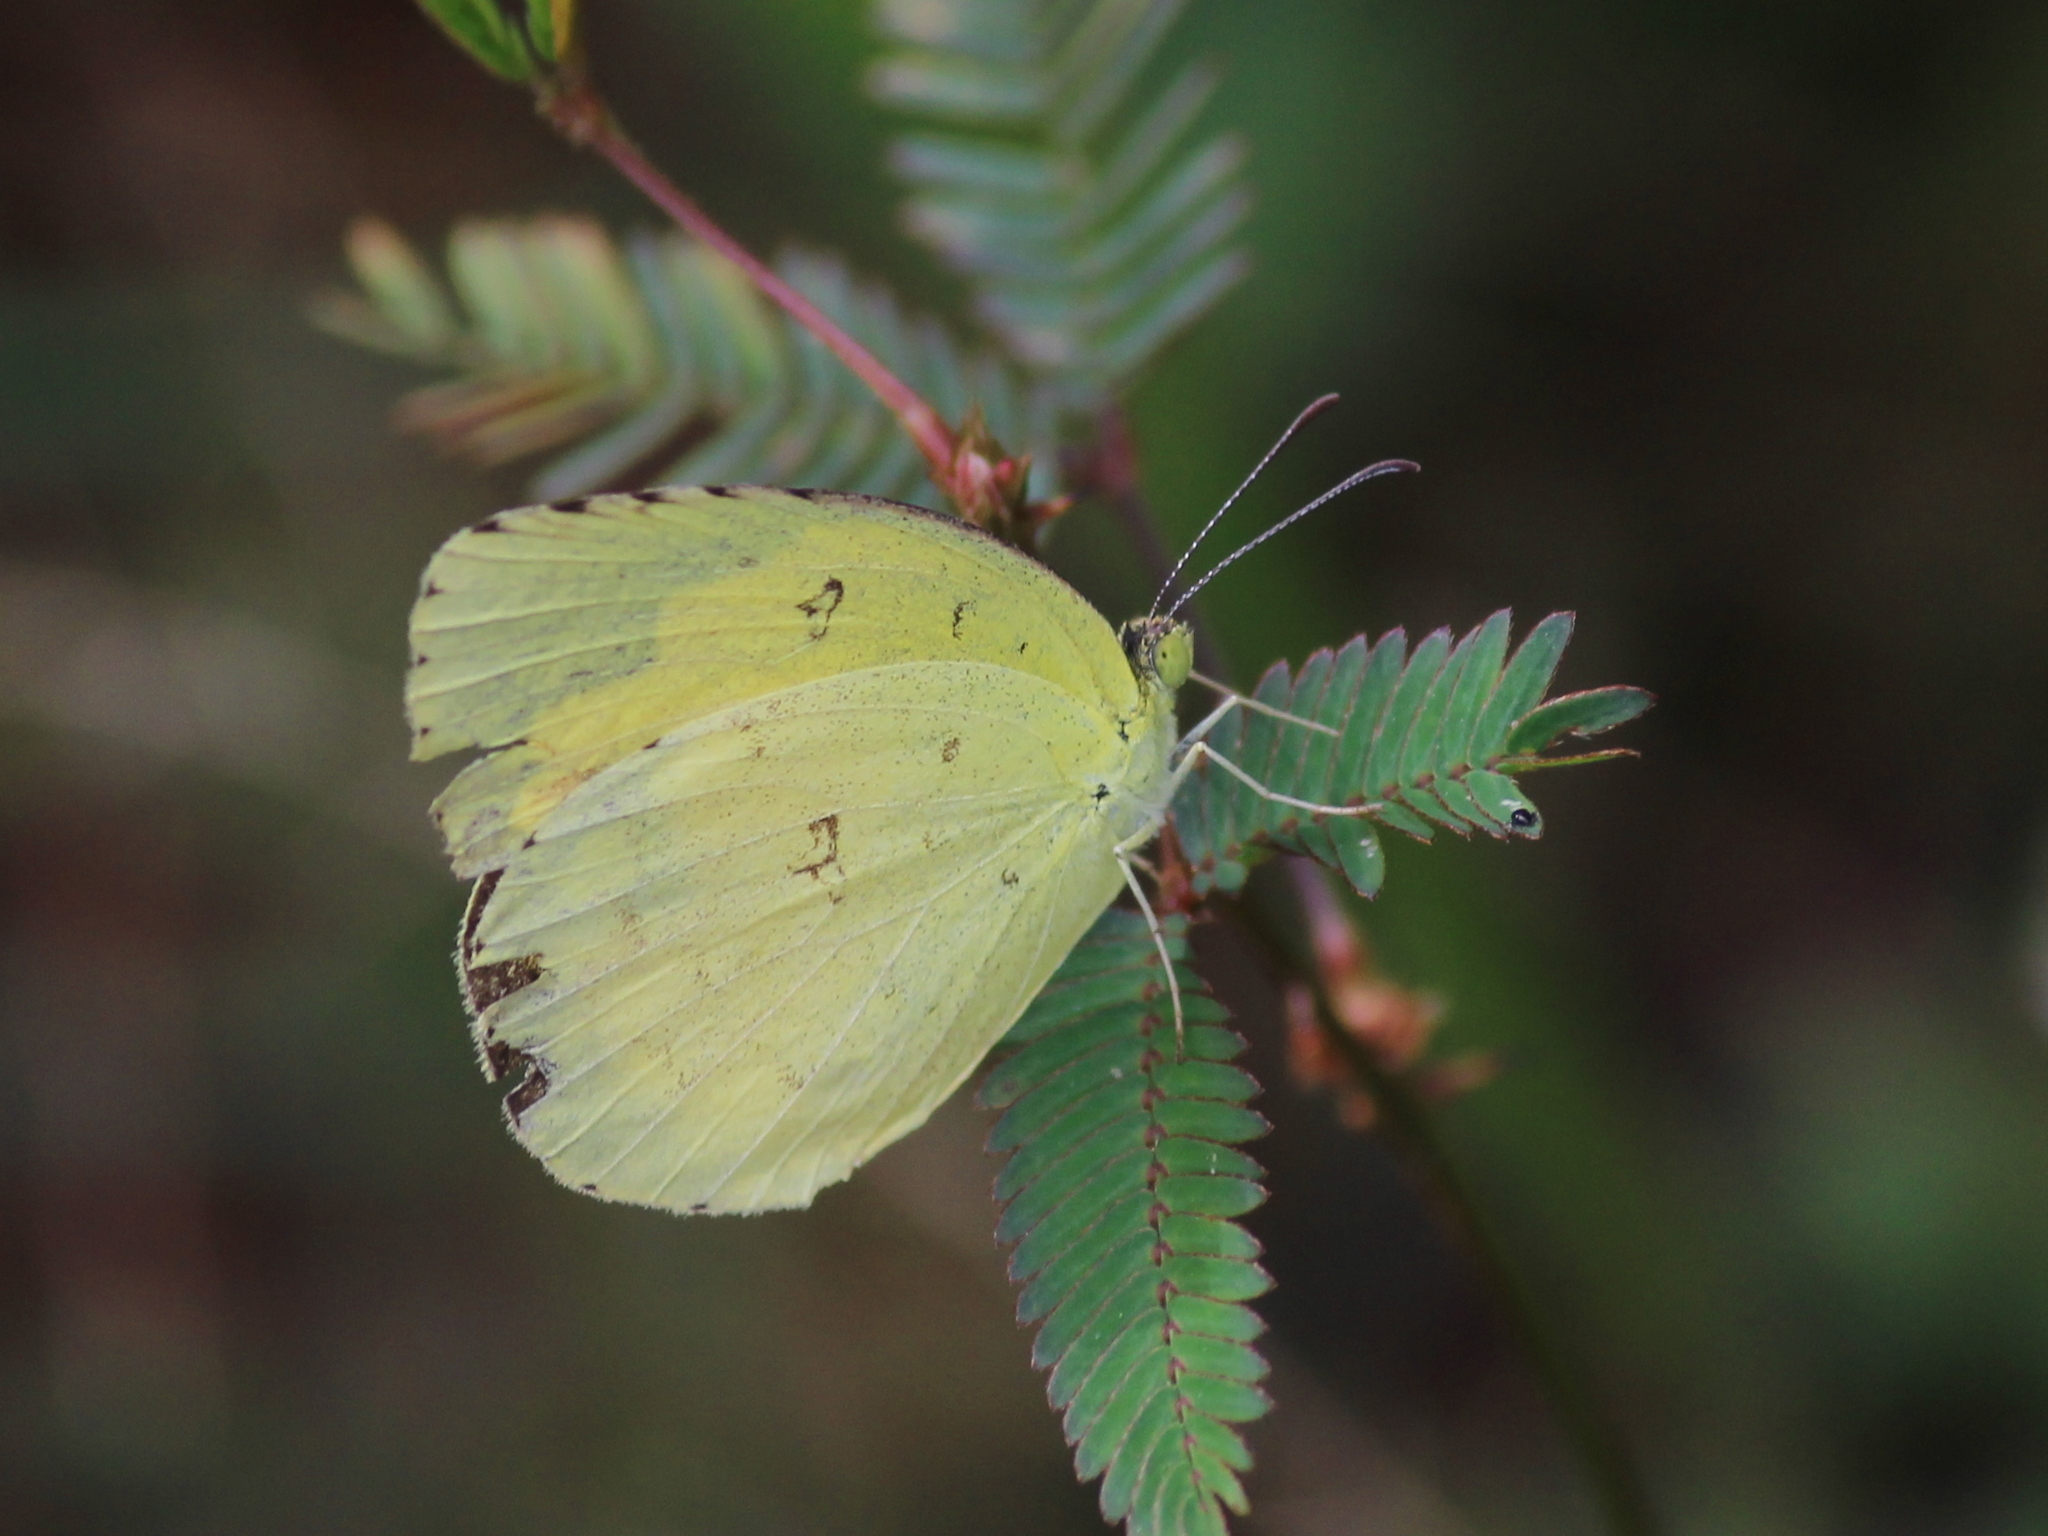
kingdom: Animalia
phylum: Arthropoda
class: Insecta
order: Lepidoptera
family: Pieridae
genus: Eurema
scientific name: Eurema hecabe
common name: Pale grass yellow
